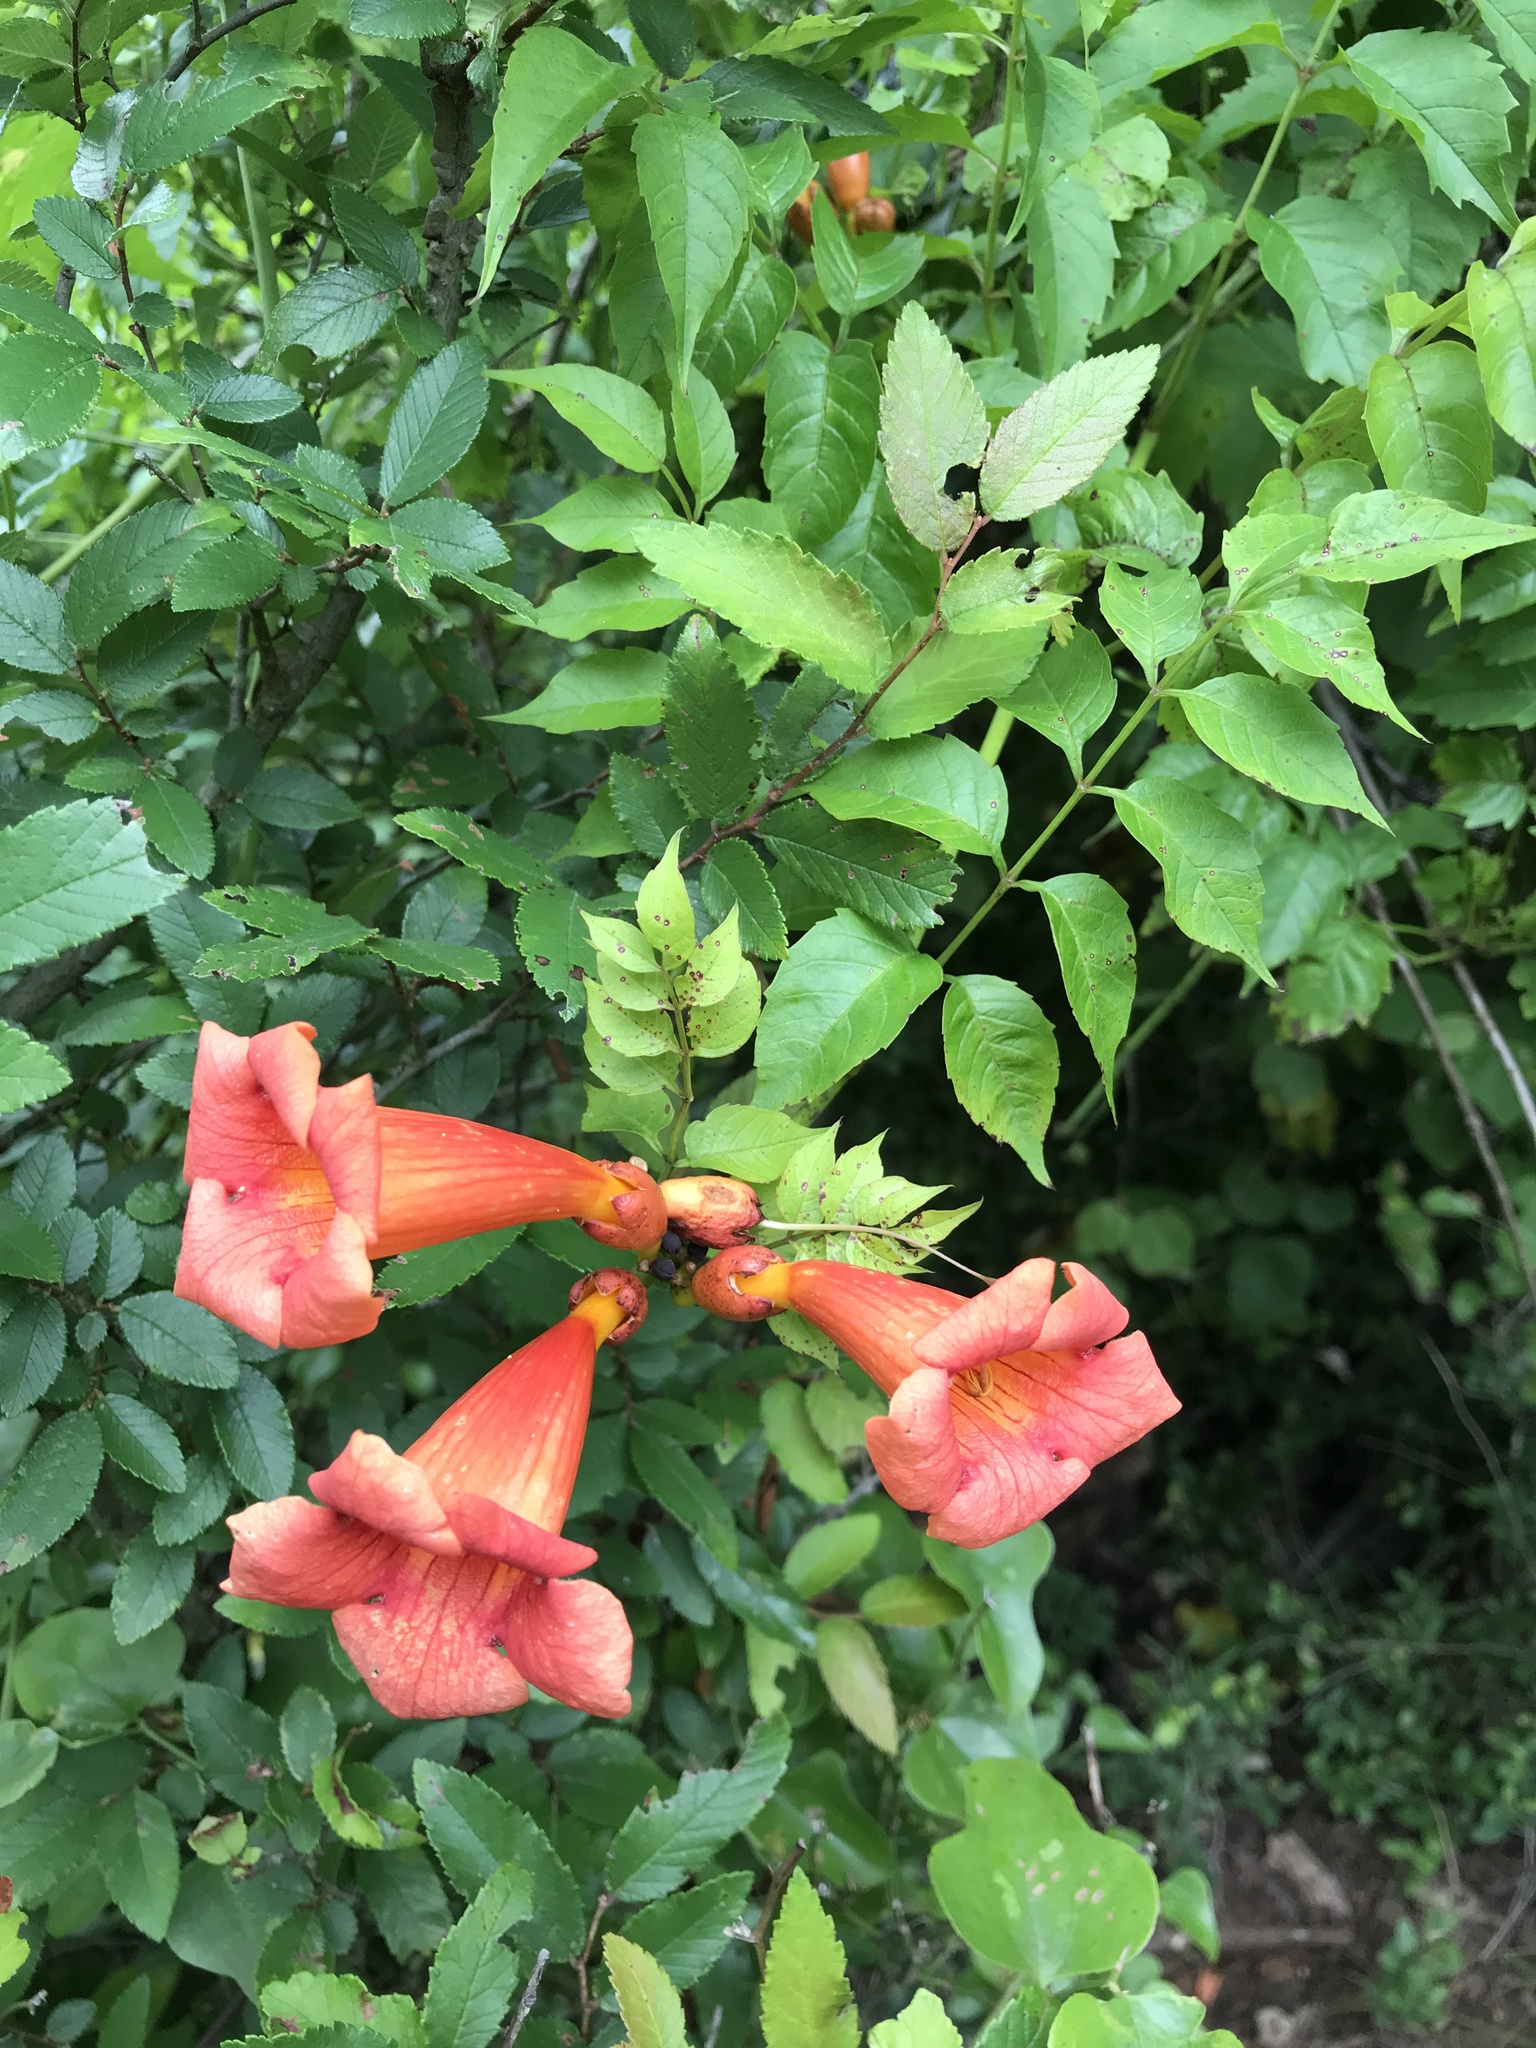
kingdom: Plantae
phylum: Tracheophyta
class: Magnoliopsida
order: Lamiales
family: Bignoniaceae
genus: Campsis
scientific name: Campsis radicans
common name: Trumpet-creeper
